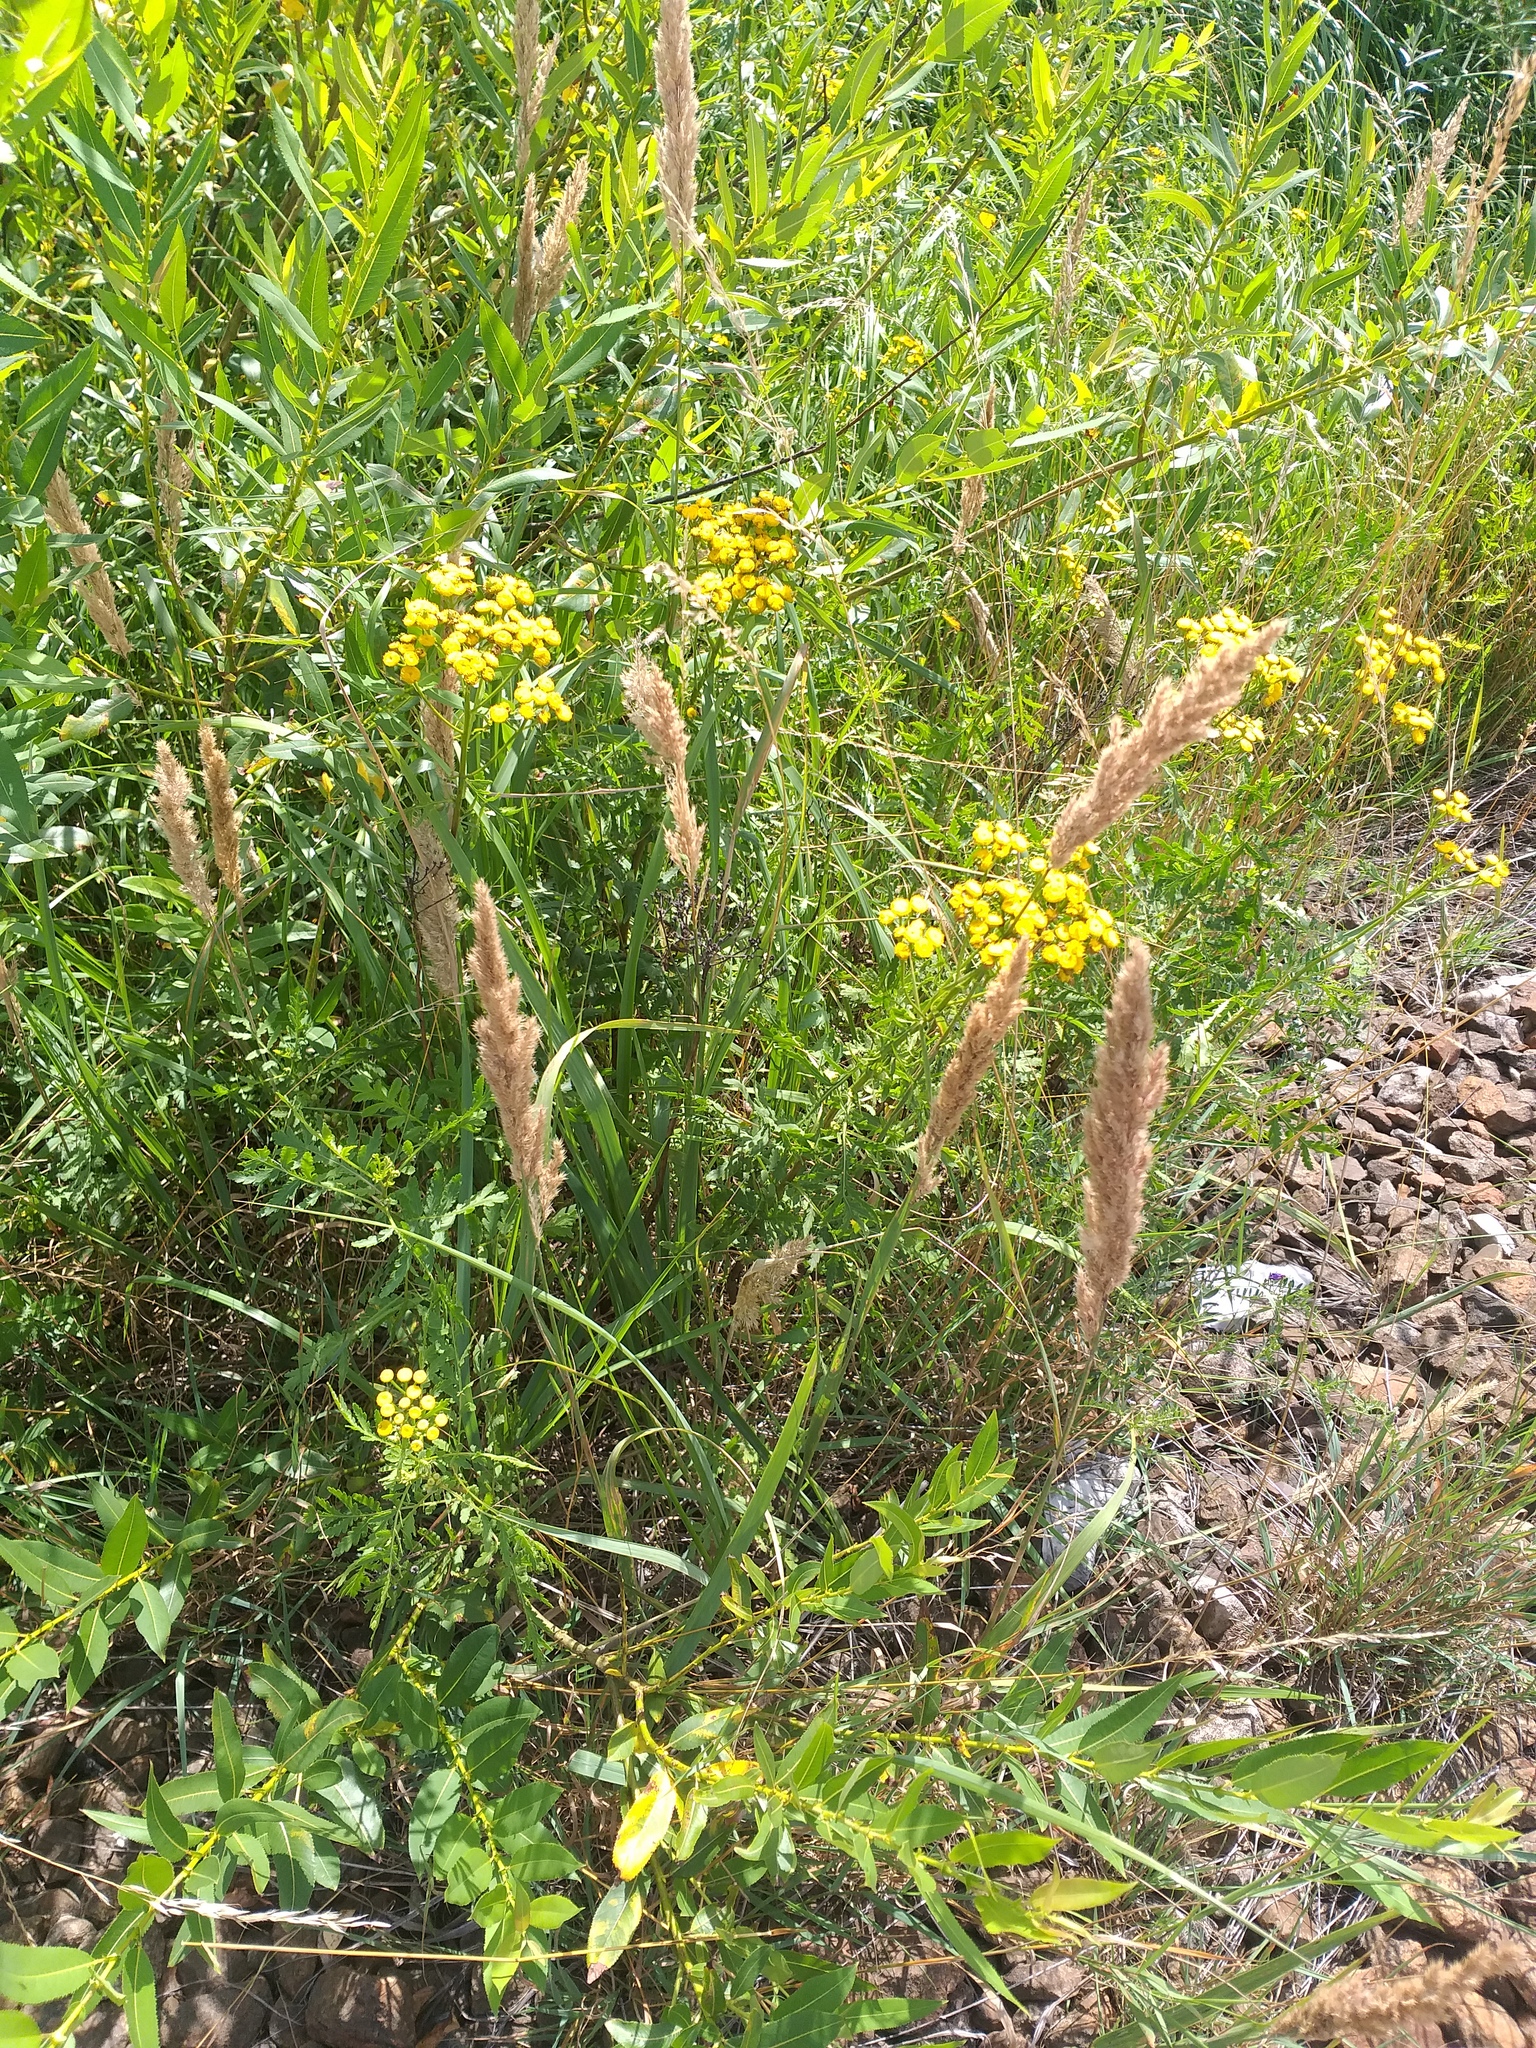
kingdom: Plantae
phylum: Tracheophyta
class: Liliopsida
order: Poales
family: Poaceae
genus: Calamagrostis
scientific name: Calamagrostis epigejos
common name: Wood small-reed
